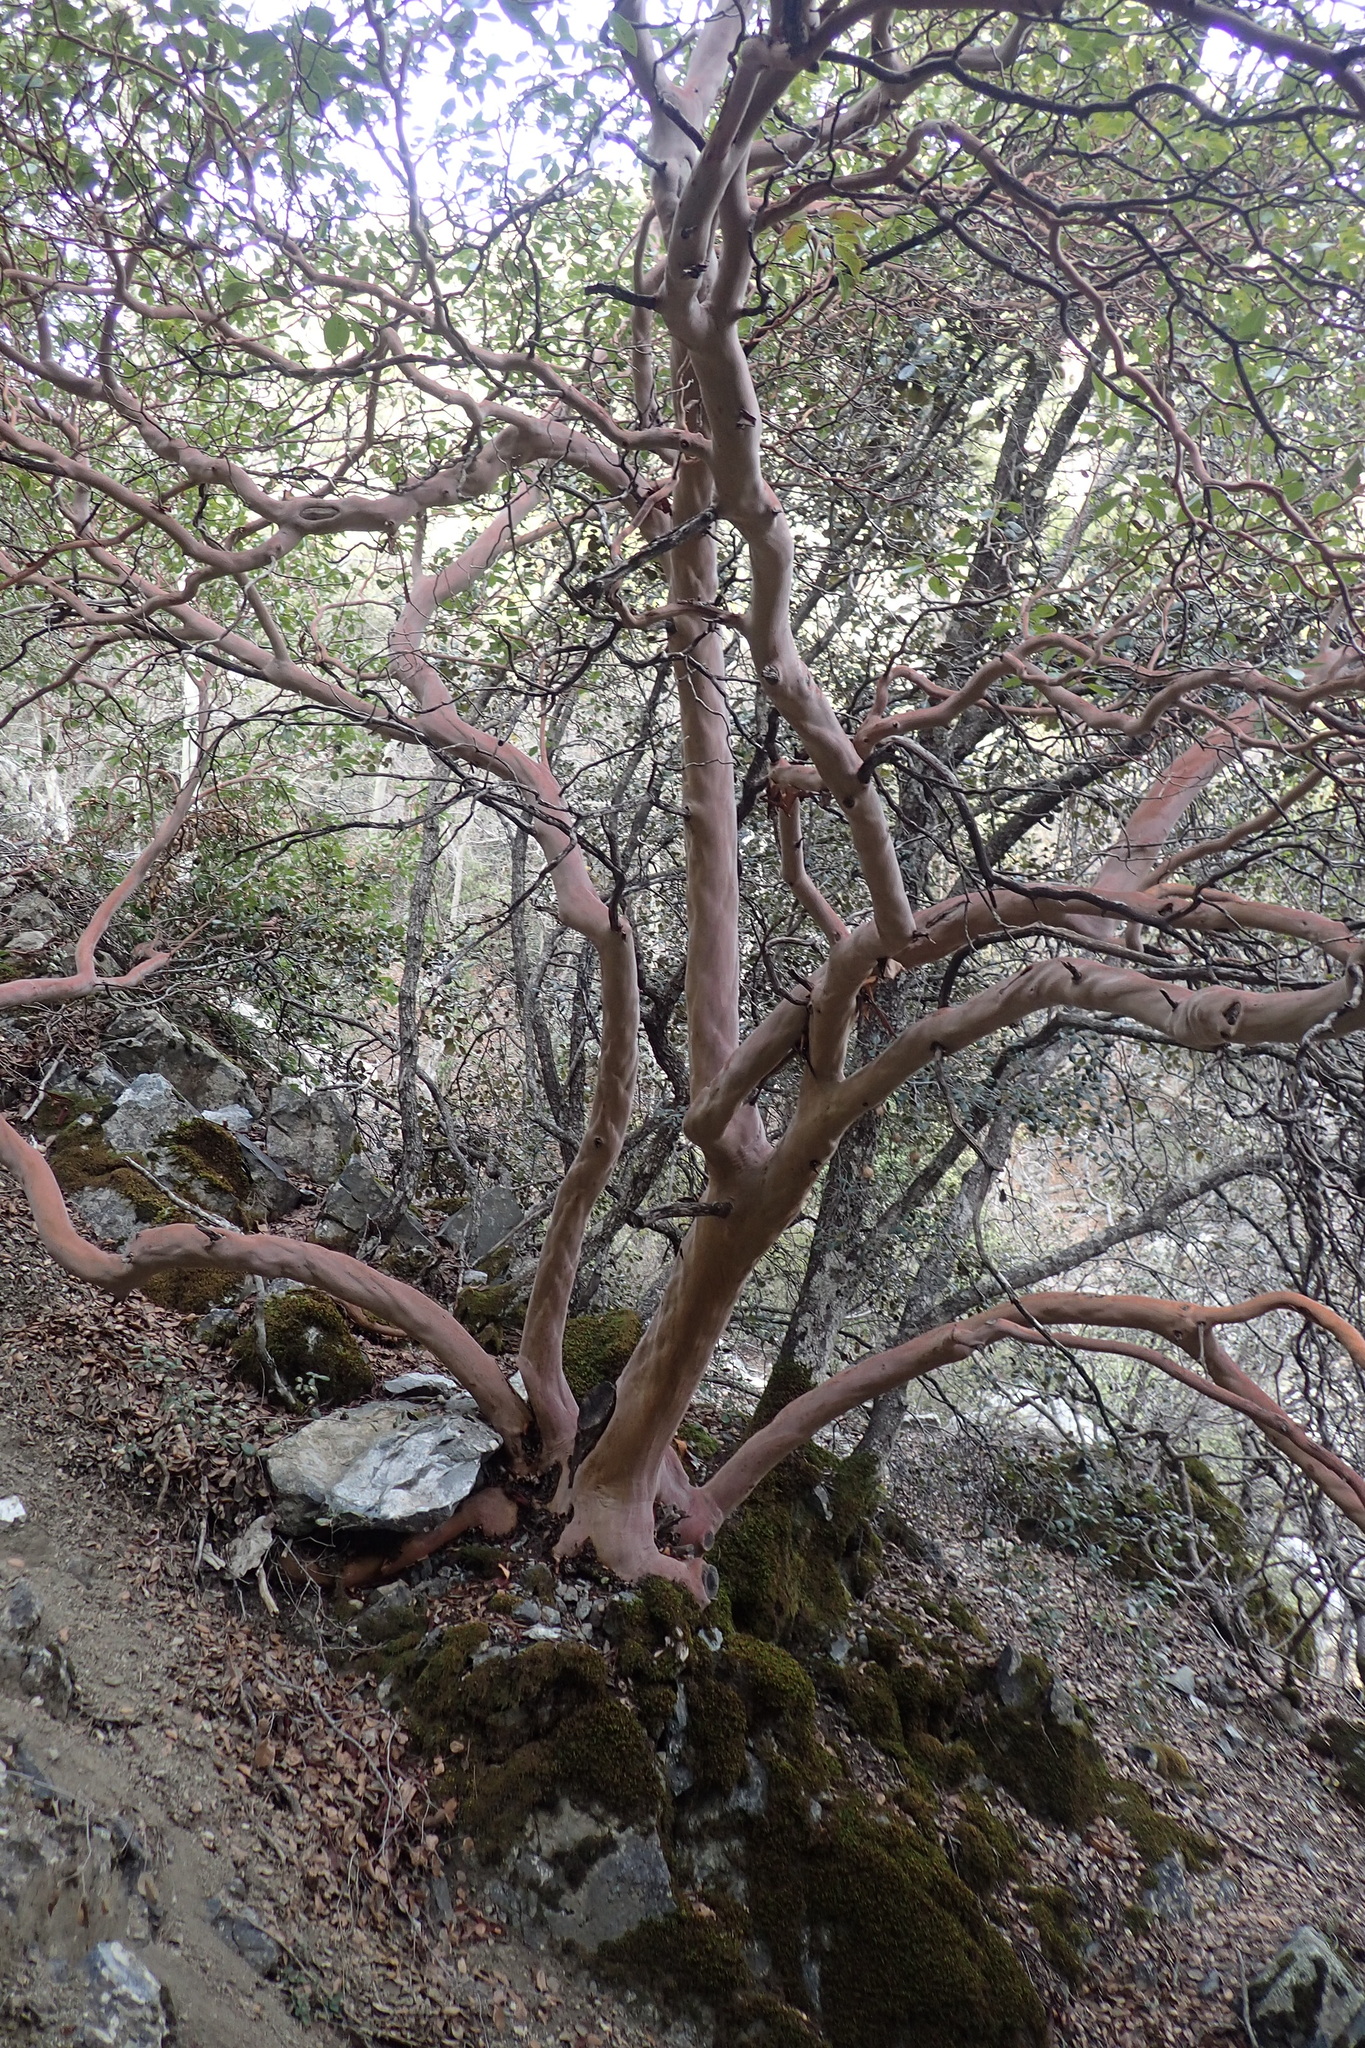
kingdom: Plantae
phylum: Tracheophyta
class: Magnoliopsida
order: Ericales
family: Ericaceae
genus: Arbutus
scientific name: Arbutus andrachne
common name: Greek strawberry tree
